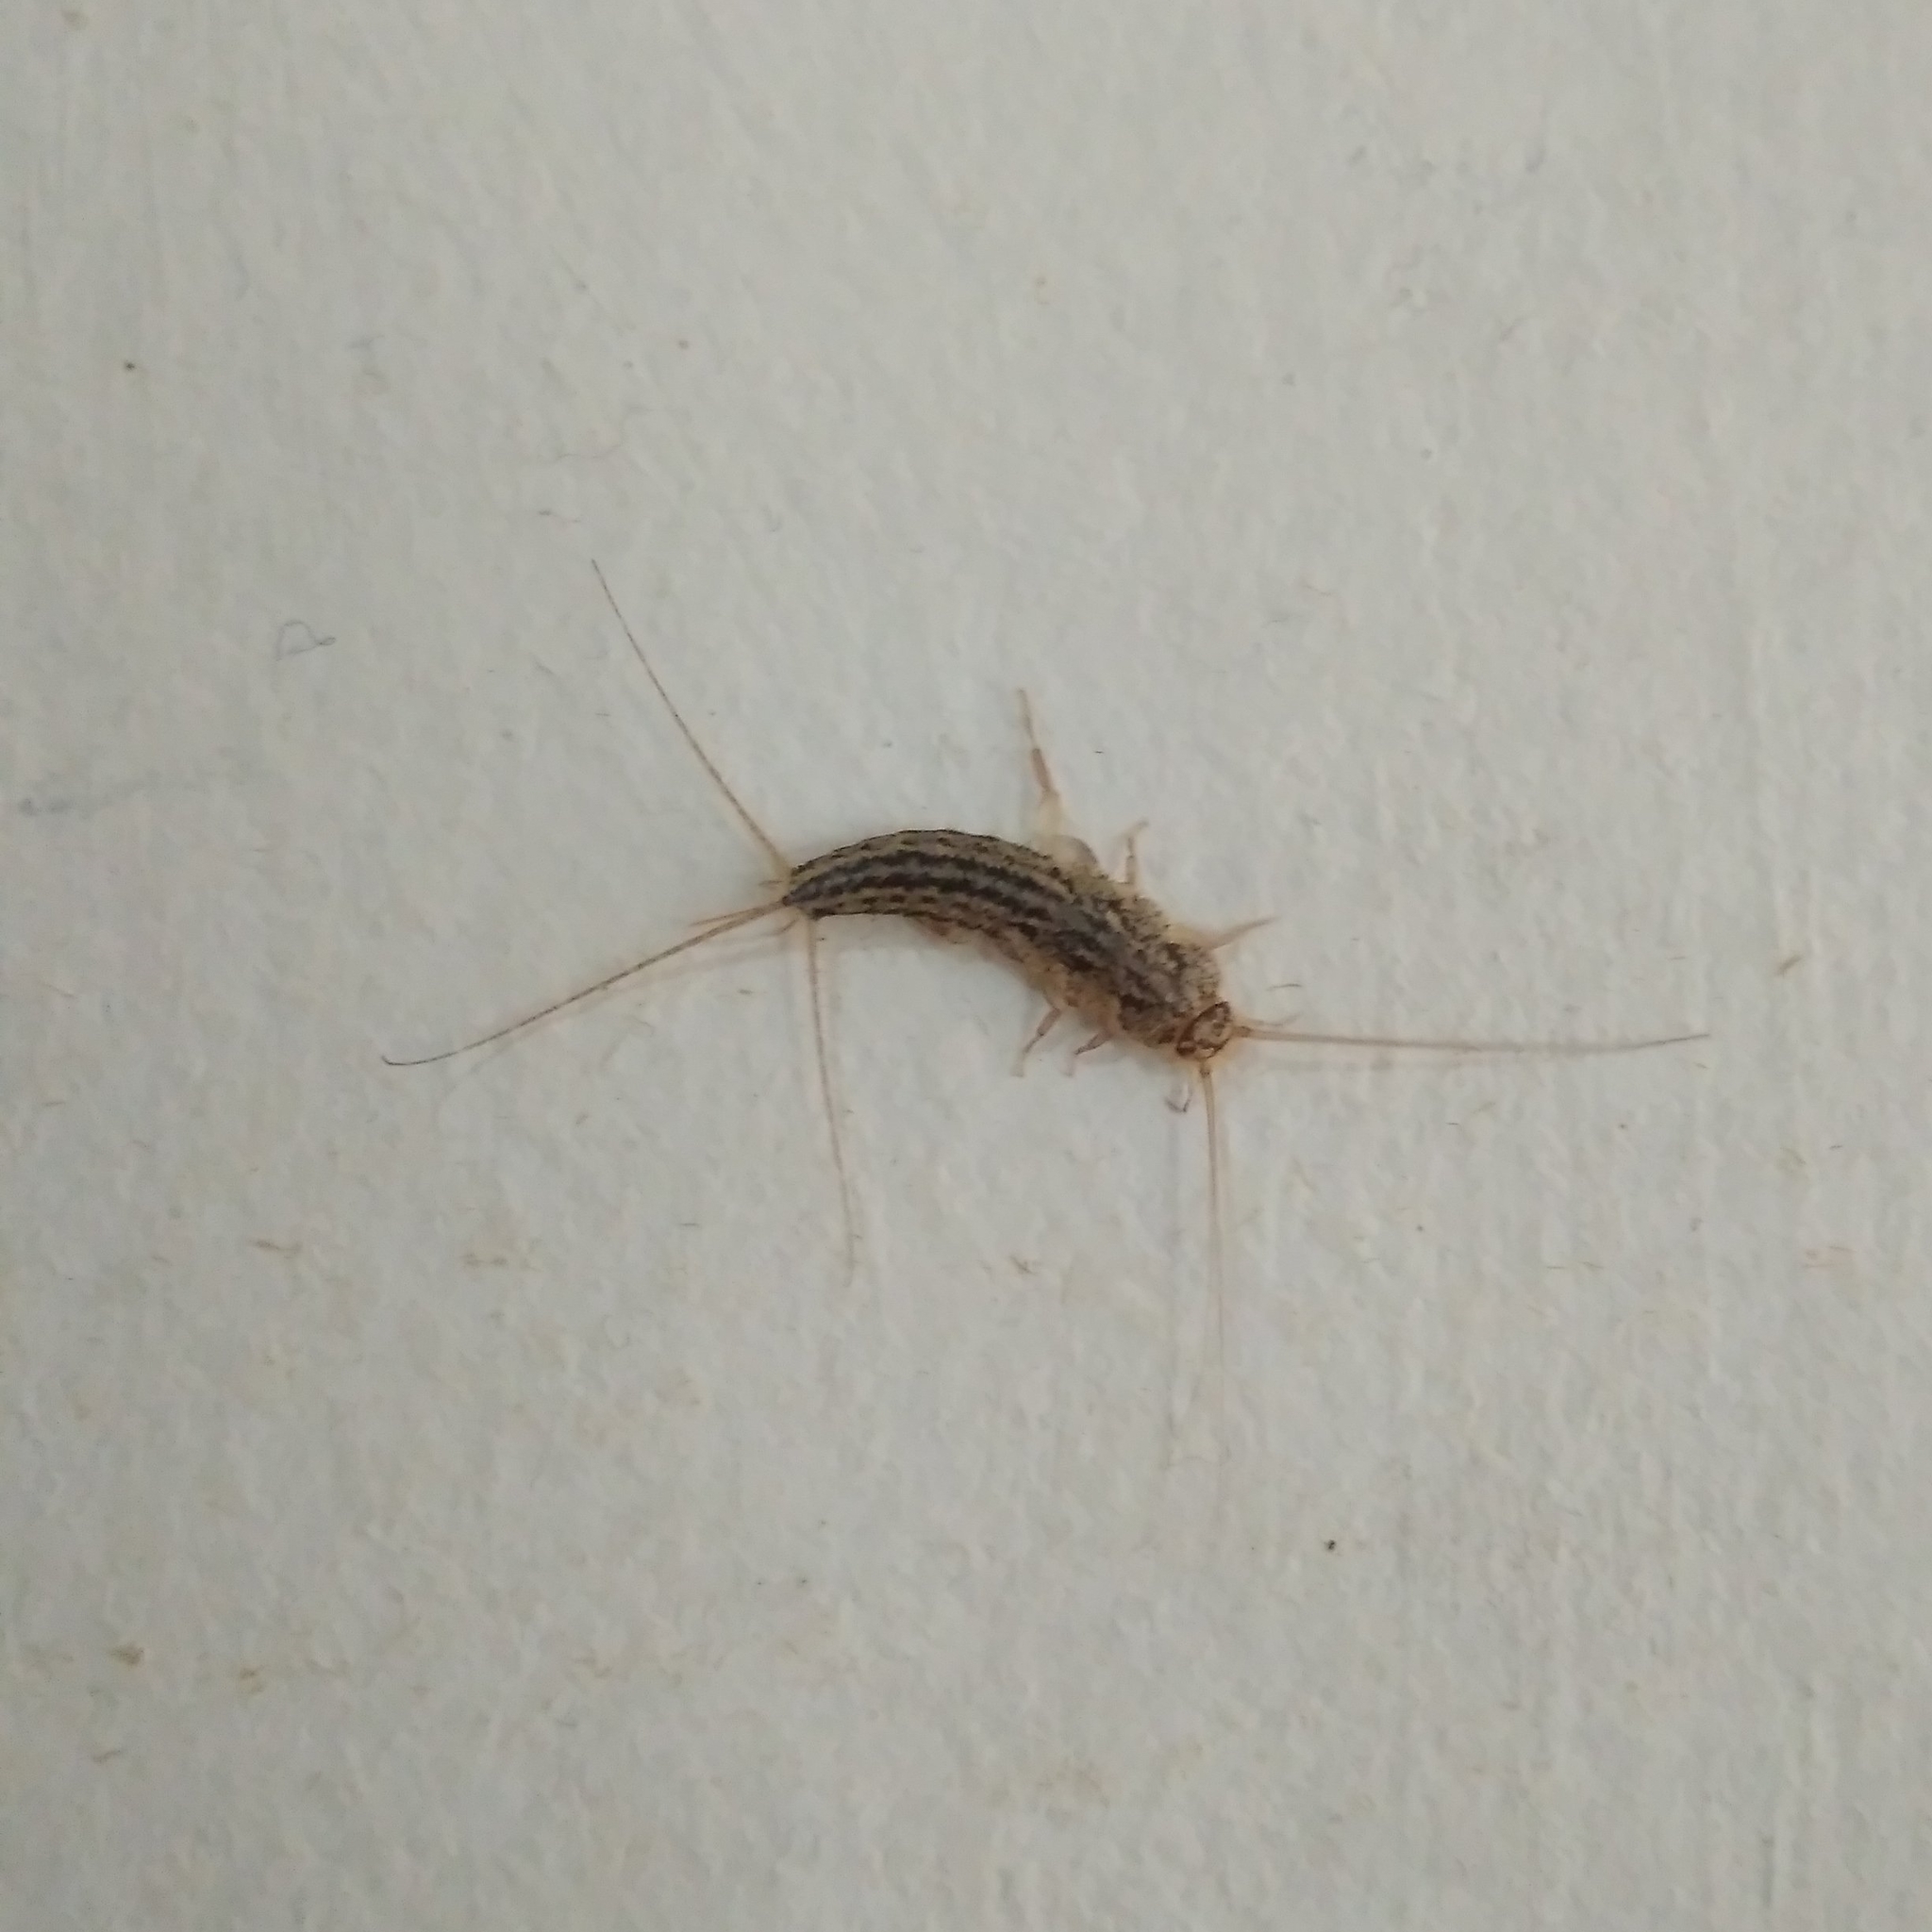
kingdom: Animalia
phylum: Arthropoda
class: Insecta
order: Zygentoma
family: Lepismatidae
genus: Ctenolepisma
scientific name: Ctenolepisma lineata
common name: Four-lined silverfish
